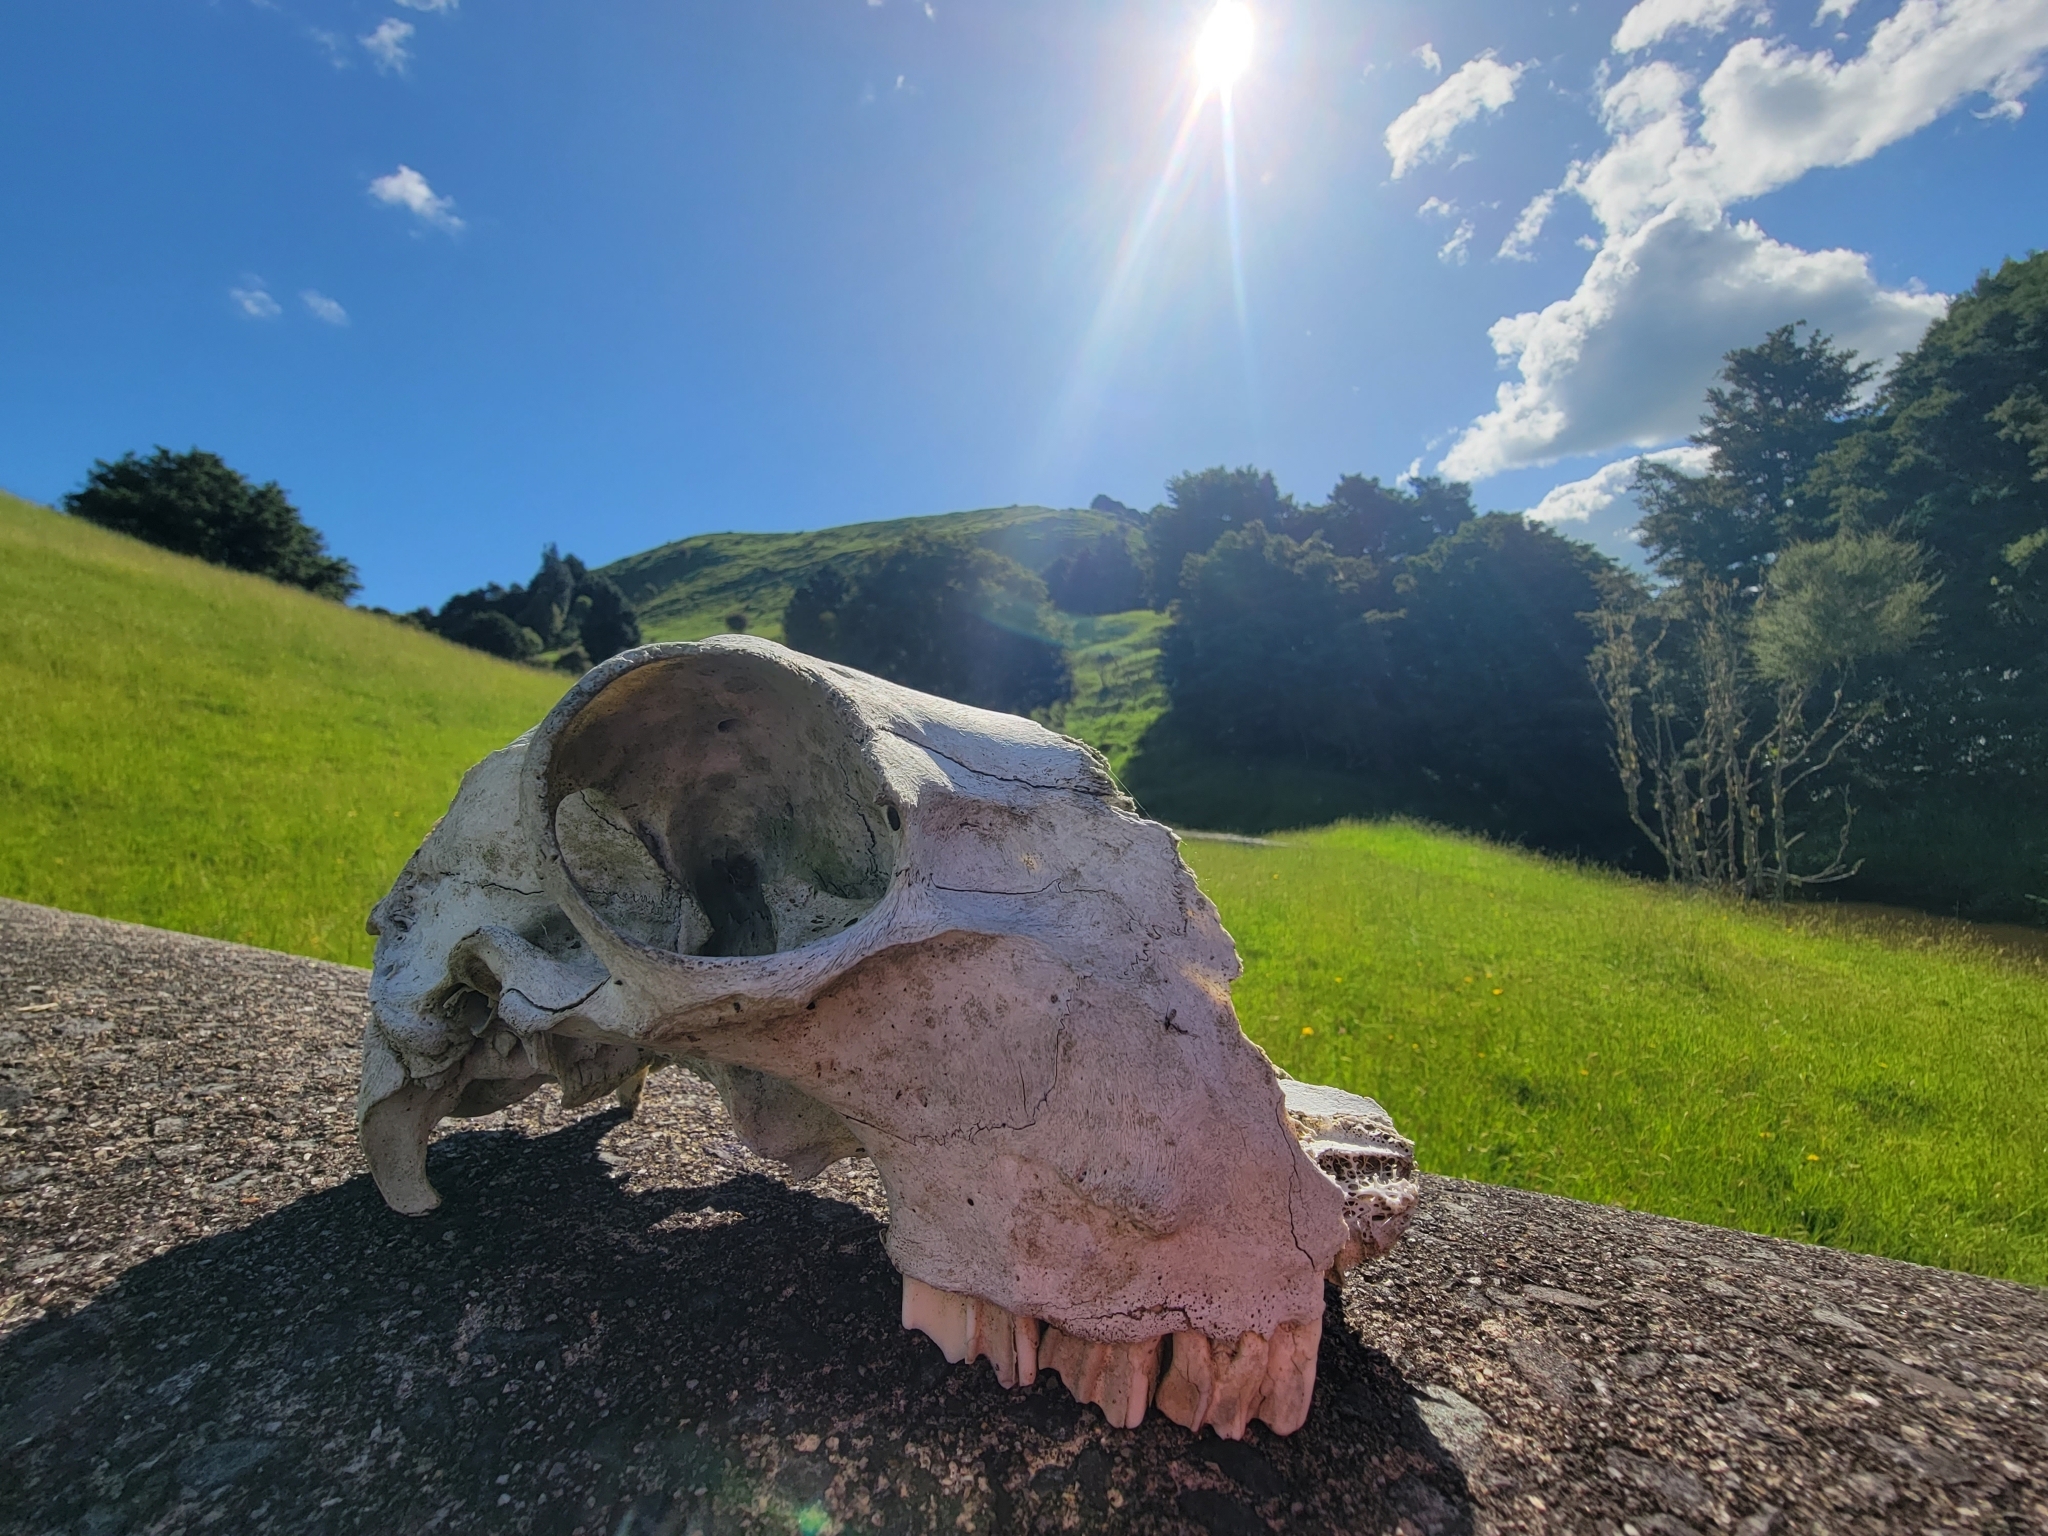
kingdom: Animalia
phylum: Chordata
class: Mammalia
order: Artiodactyla
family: Bovidae
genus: Ovis
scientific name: Ovis aries
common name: Domestic sheep
